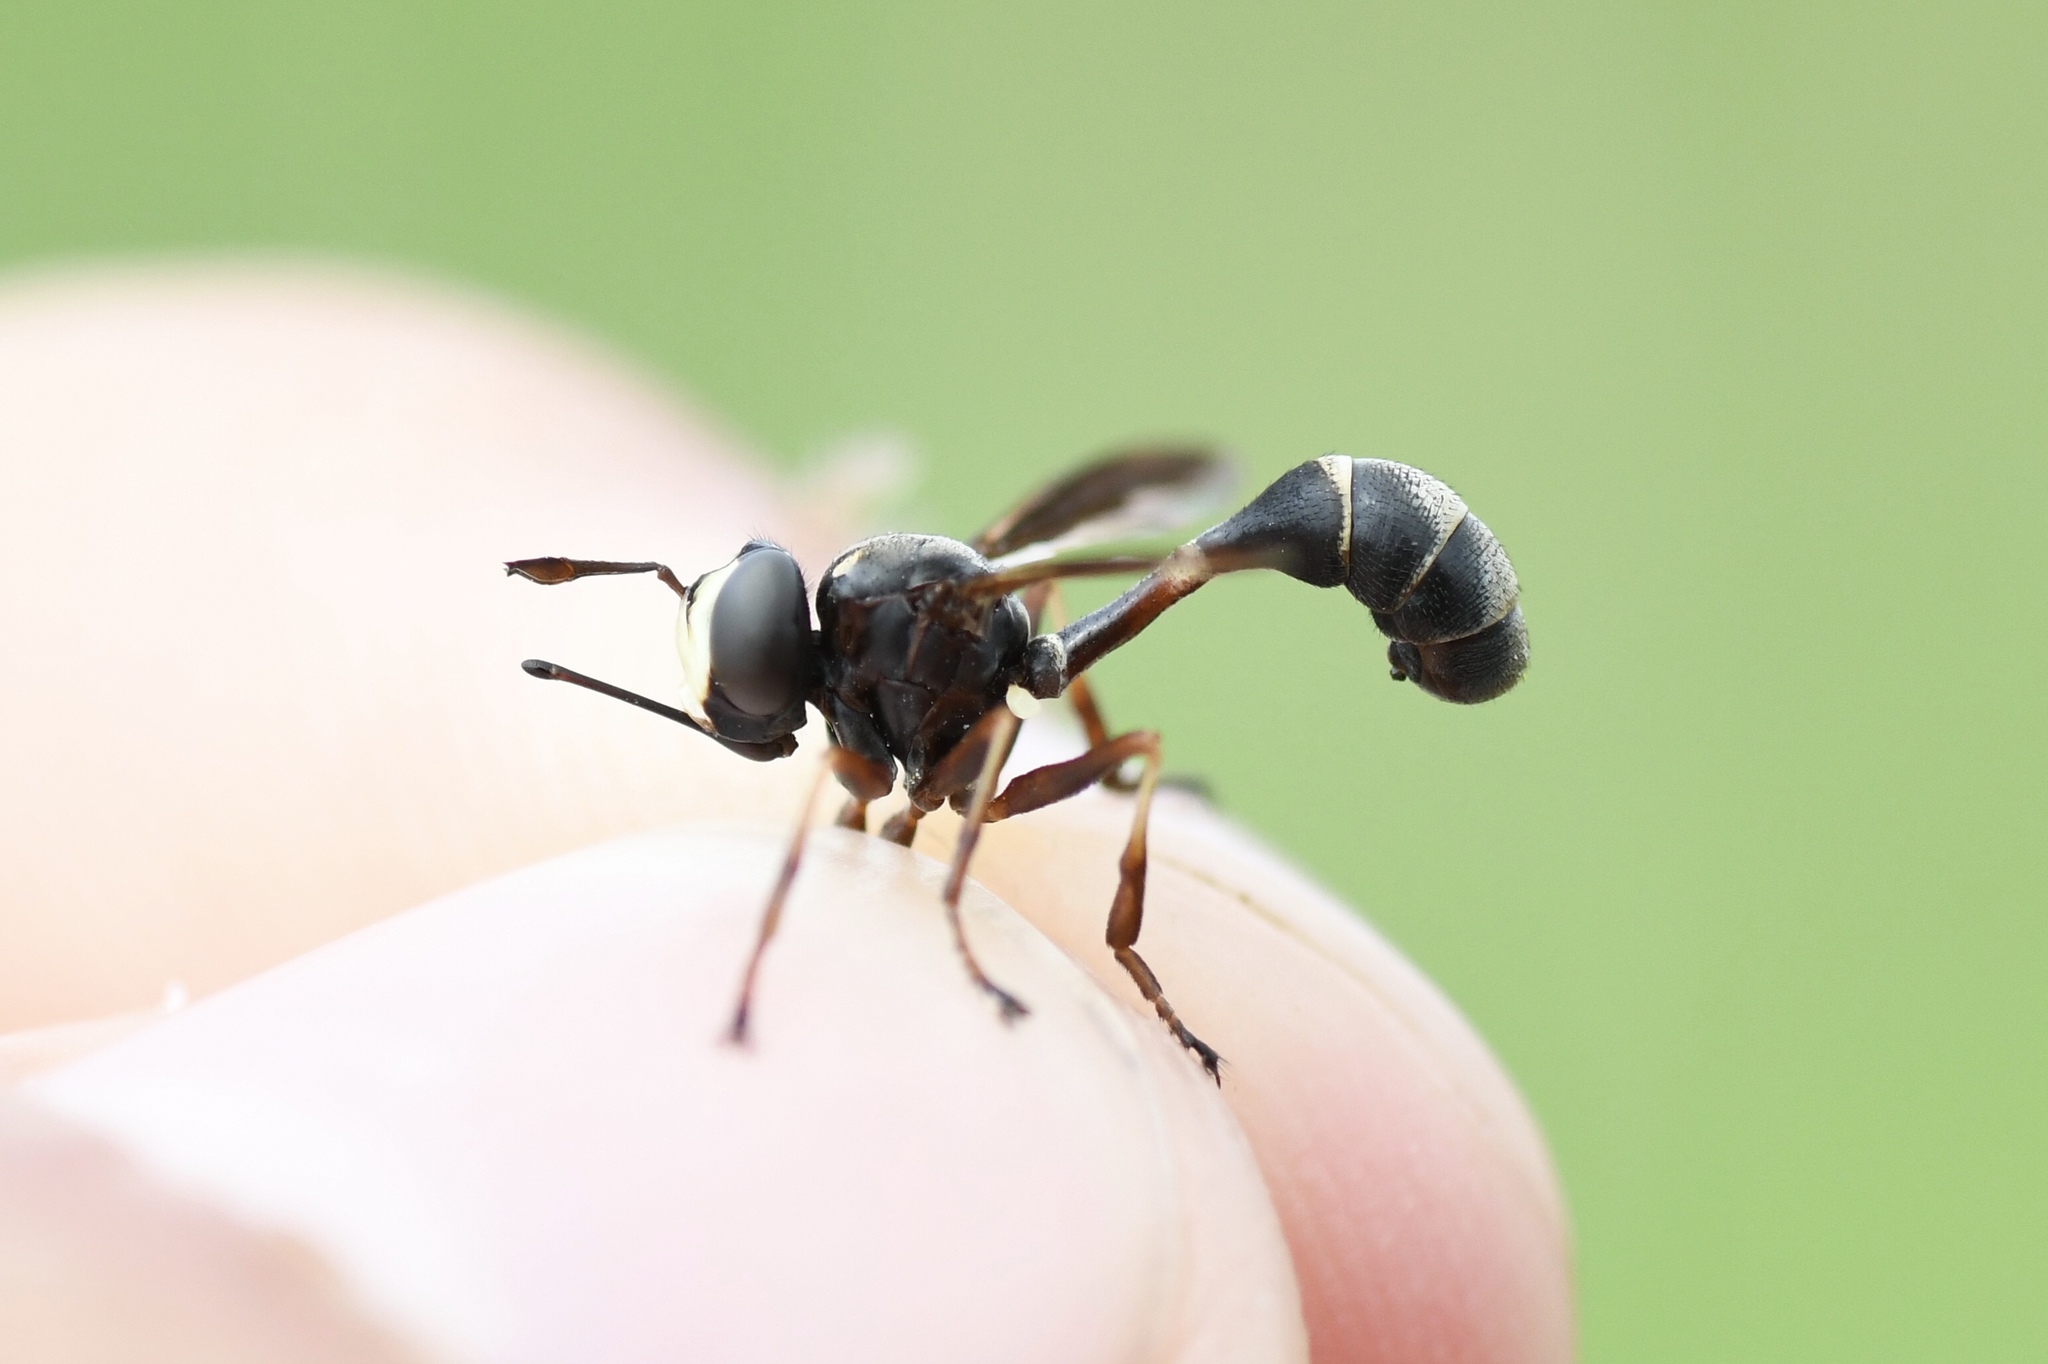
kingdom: Animalia
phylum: Arthropoda
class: Insecta
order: Diptera
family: Conopidae
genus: Physocephala
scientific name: Physocephala furcillata
